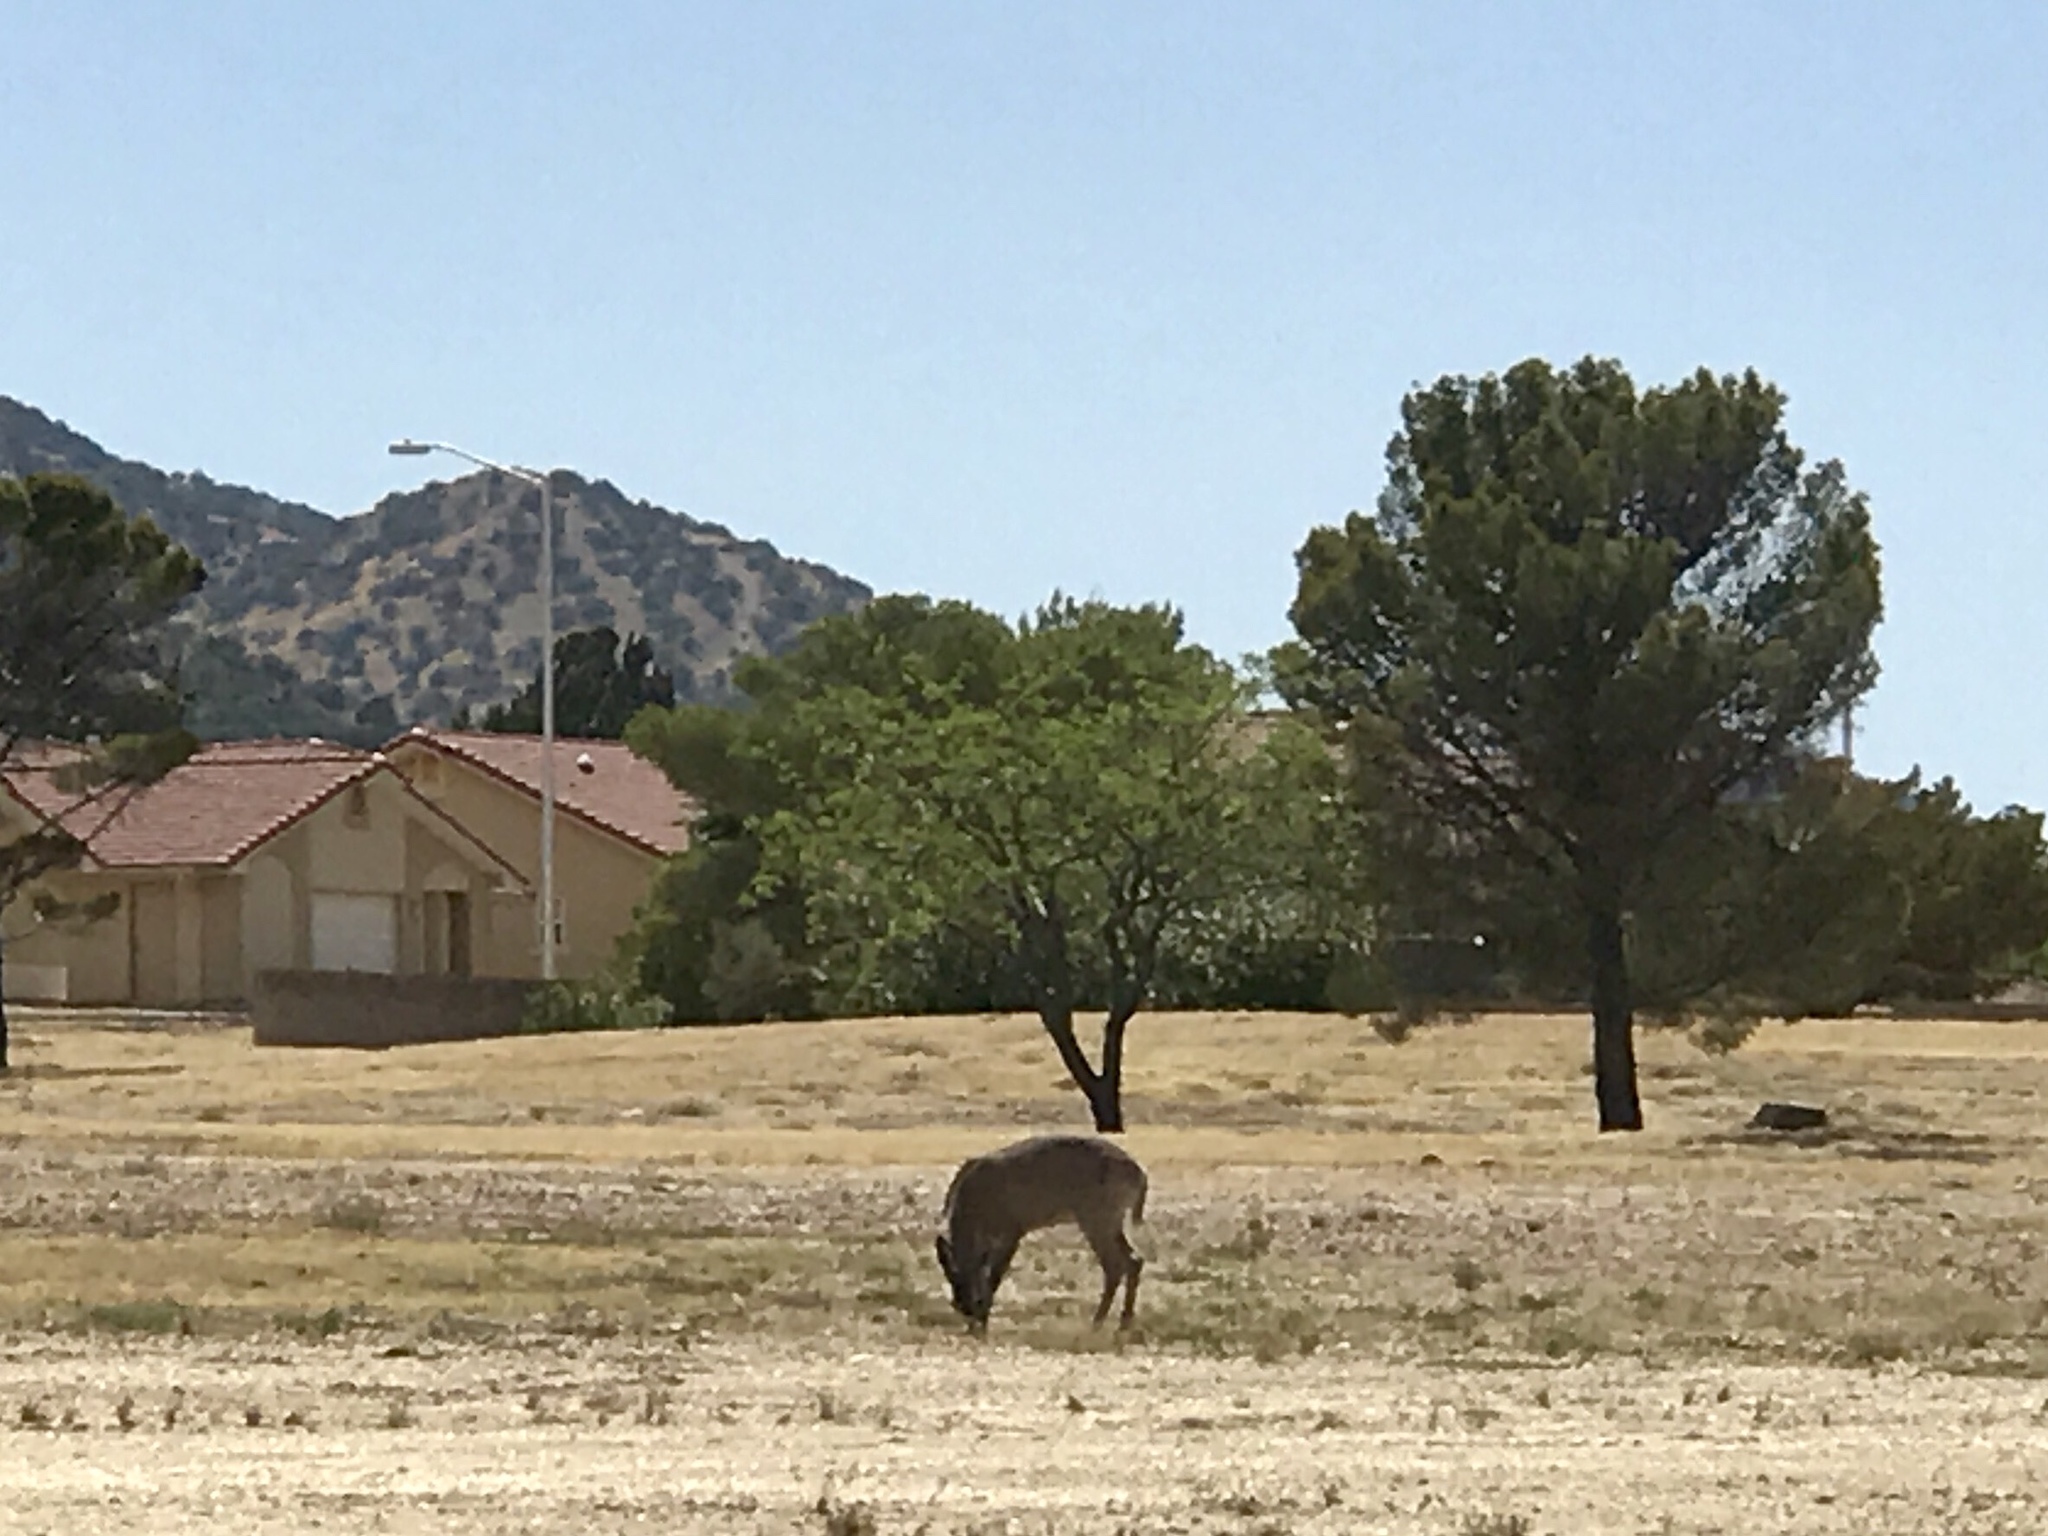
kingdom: Animalia
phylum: Chordata
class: Mammalia
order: Artiodactyla
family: Cervidae
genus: Odocoileus
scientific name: Odocoileus virginianus
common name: White-tailed deer
